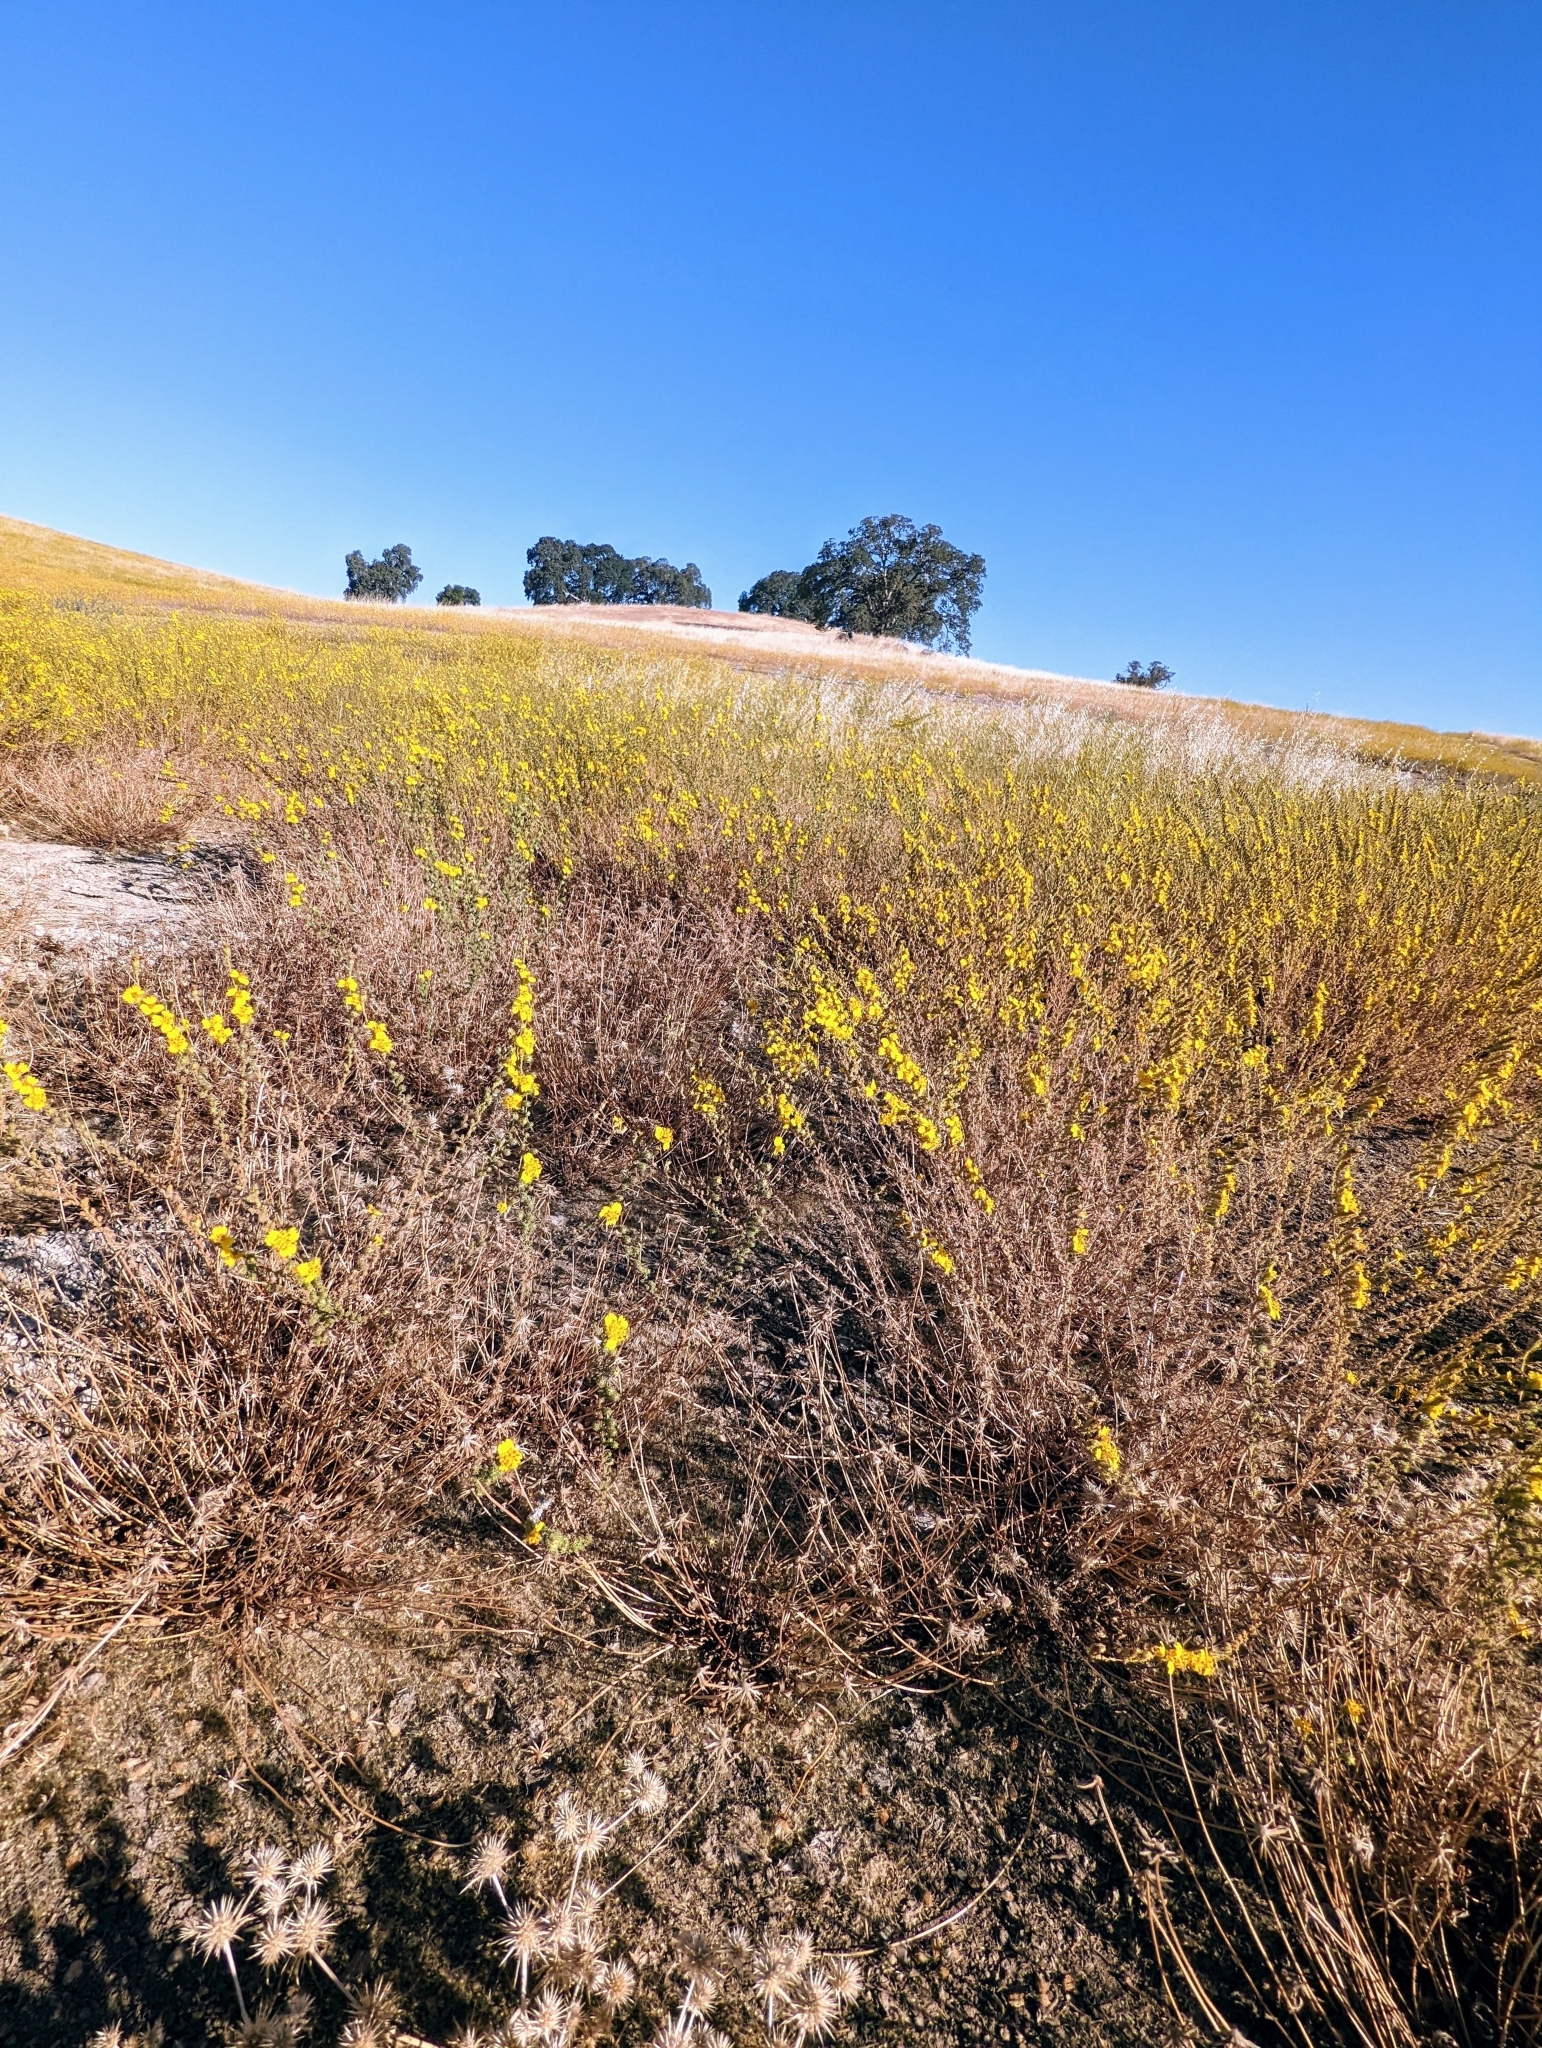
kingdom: Plantae
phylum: Tracheophyta
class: Magnoliopsida
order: Asterales
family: Asteraceae
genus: Holocarpha
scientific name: Holocarpha virgata
